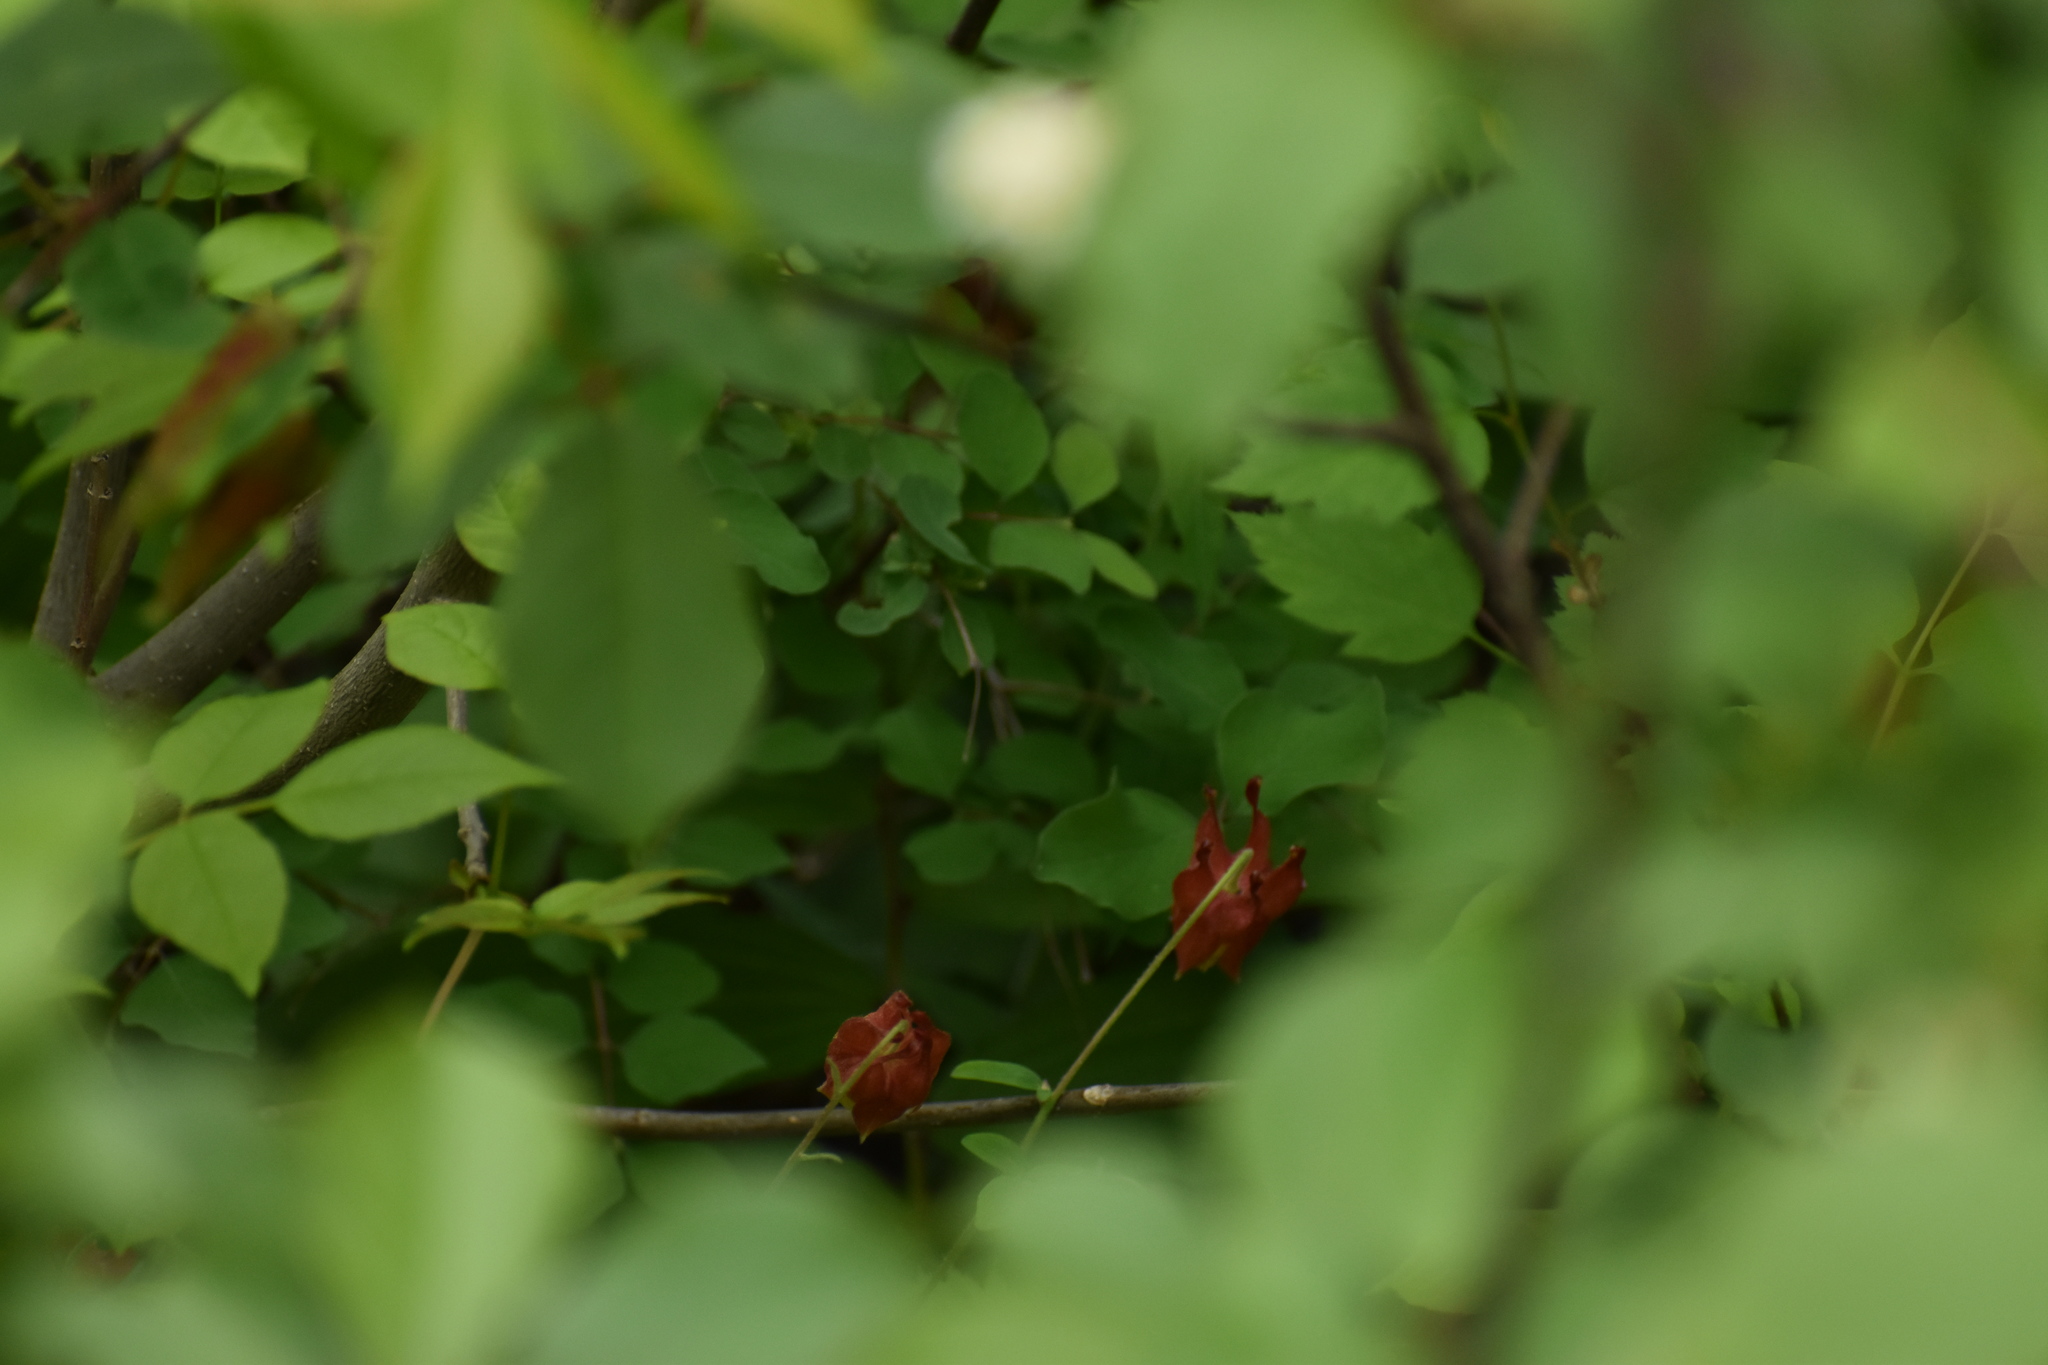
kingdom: Plantae
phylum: Tracheophyta
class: Magnoliopsida
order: Ranunculales
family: Ranunculaceae
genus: Aquilegia
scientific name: Aquilegia canadensis
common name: American columbine
